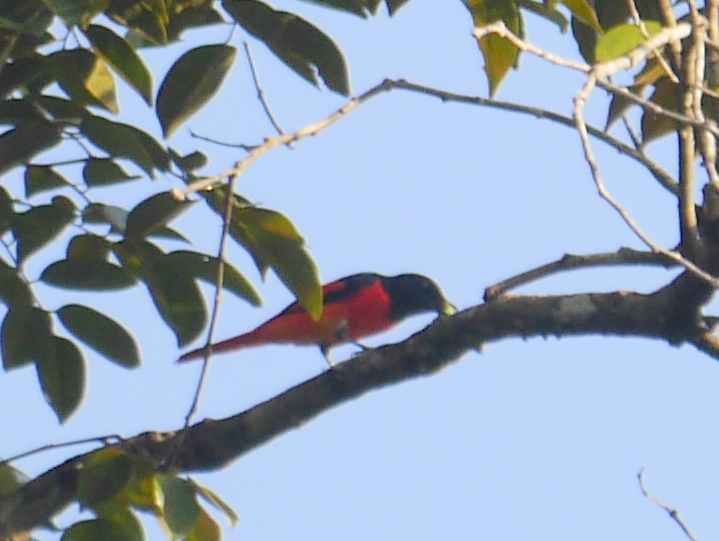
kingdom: Animalia
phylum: Chordata
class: Aves
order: Passeriformes
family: Campephagidae
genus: Pericrocotus
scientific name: Pericrocotus speciosus
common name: Scarlet minivet
